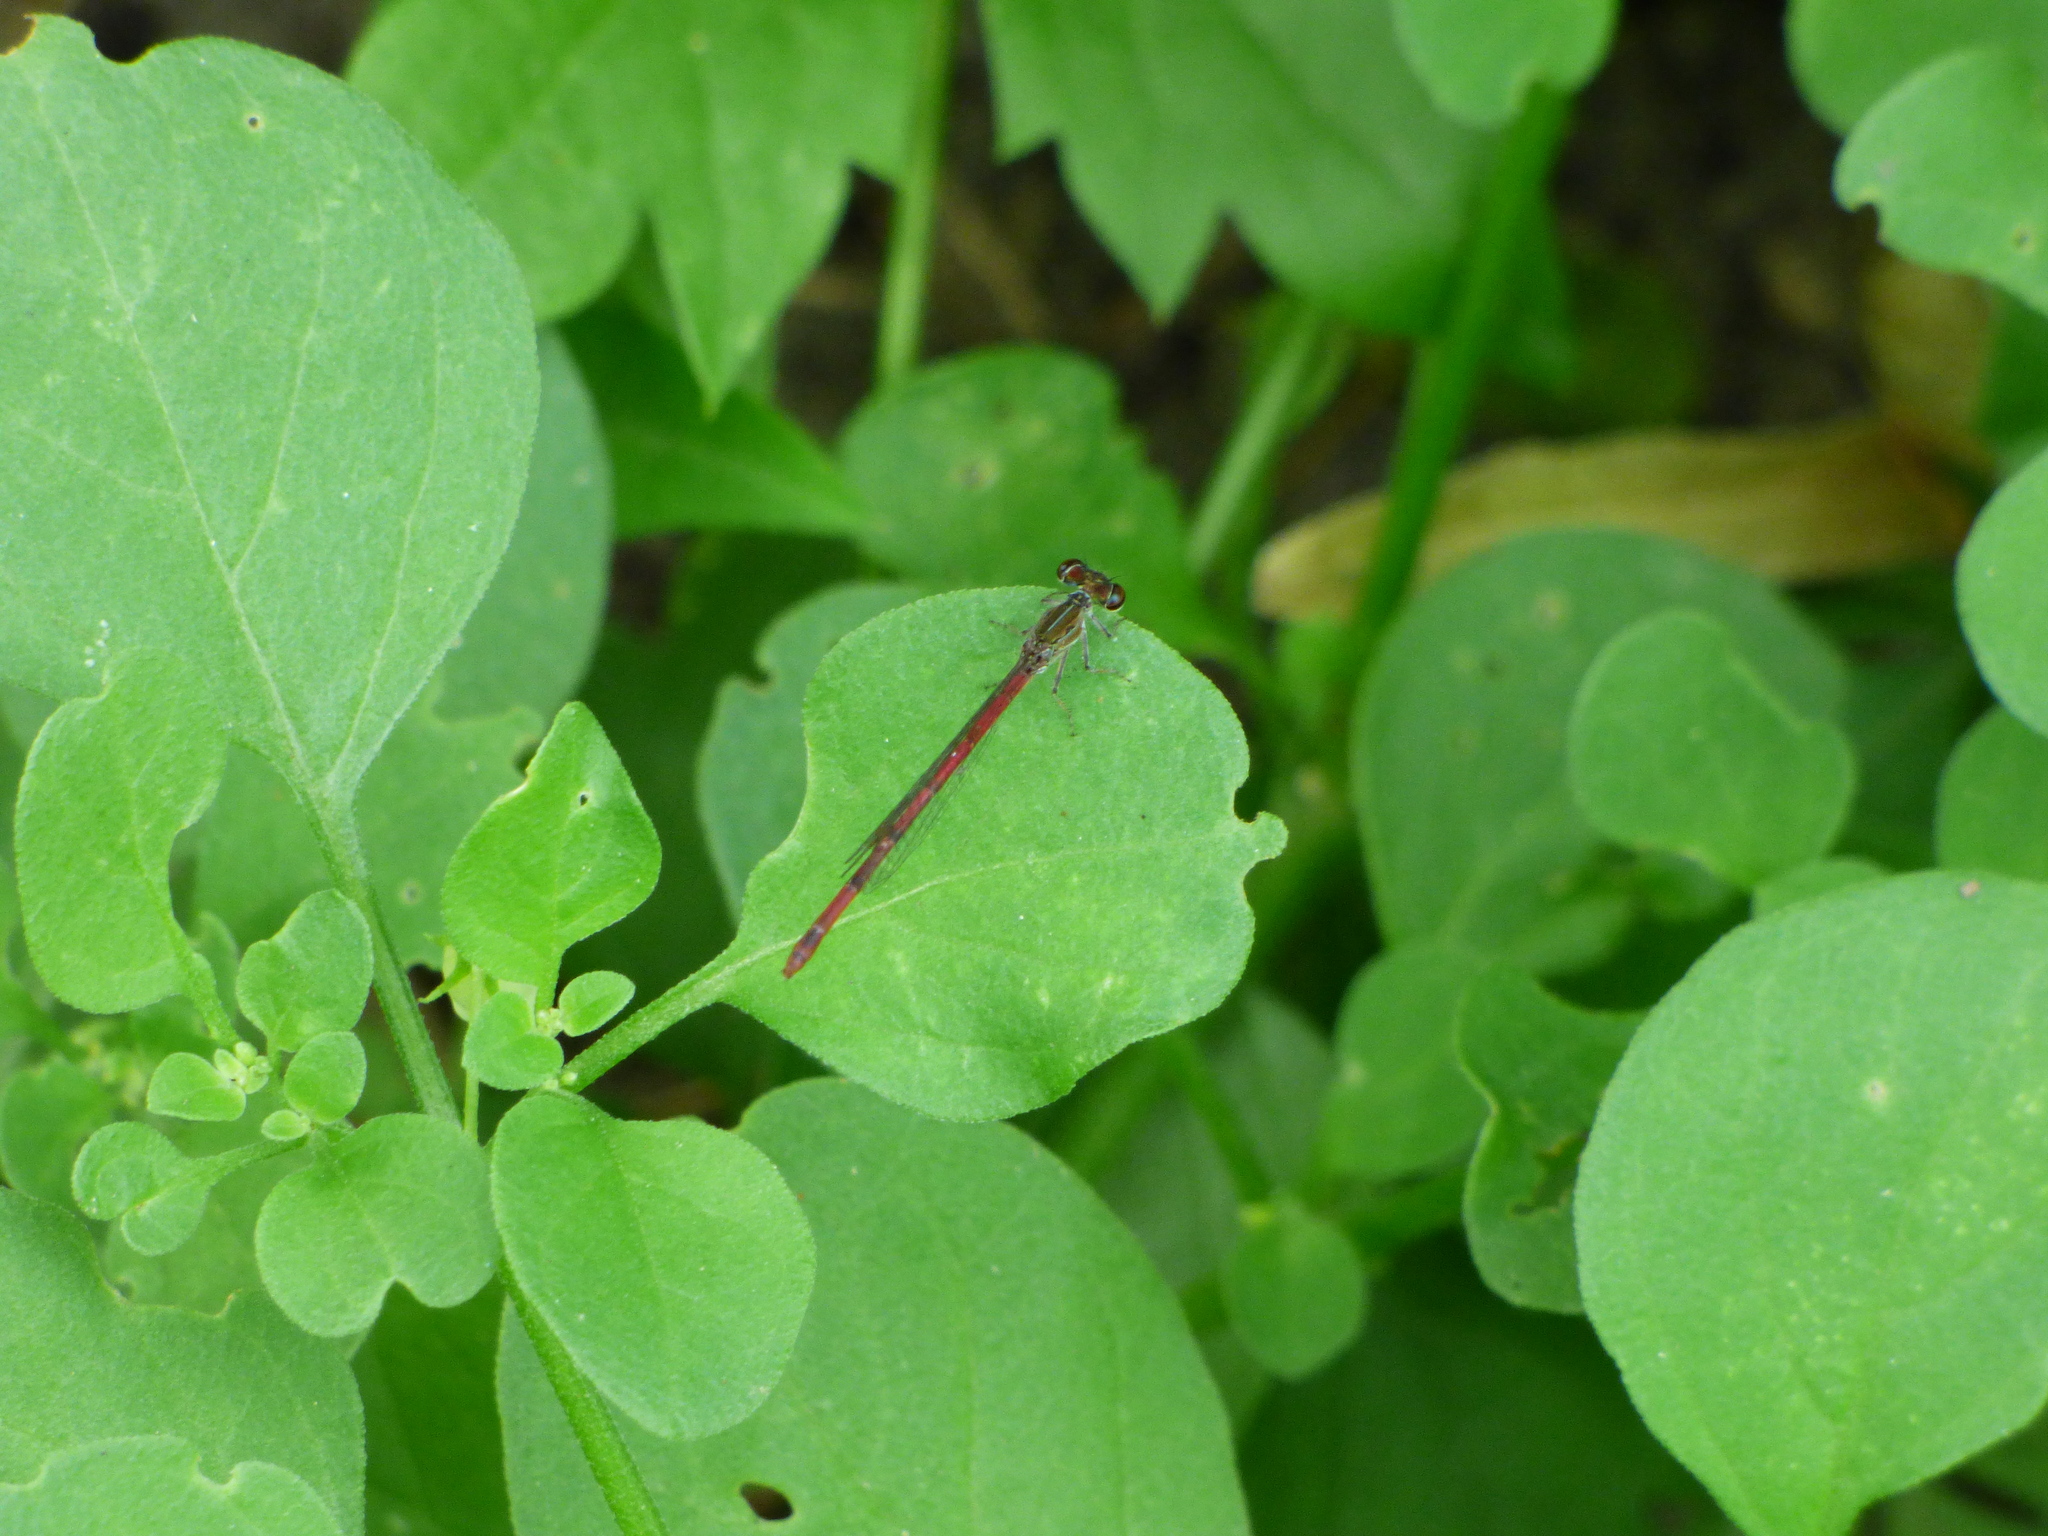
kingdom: Animalia
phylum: Arthropoda
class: Insecta
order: Odonata
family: Coenagrionidae
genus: Telebasis
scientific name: Telebasis willinki
